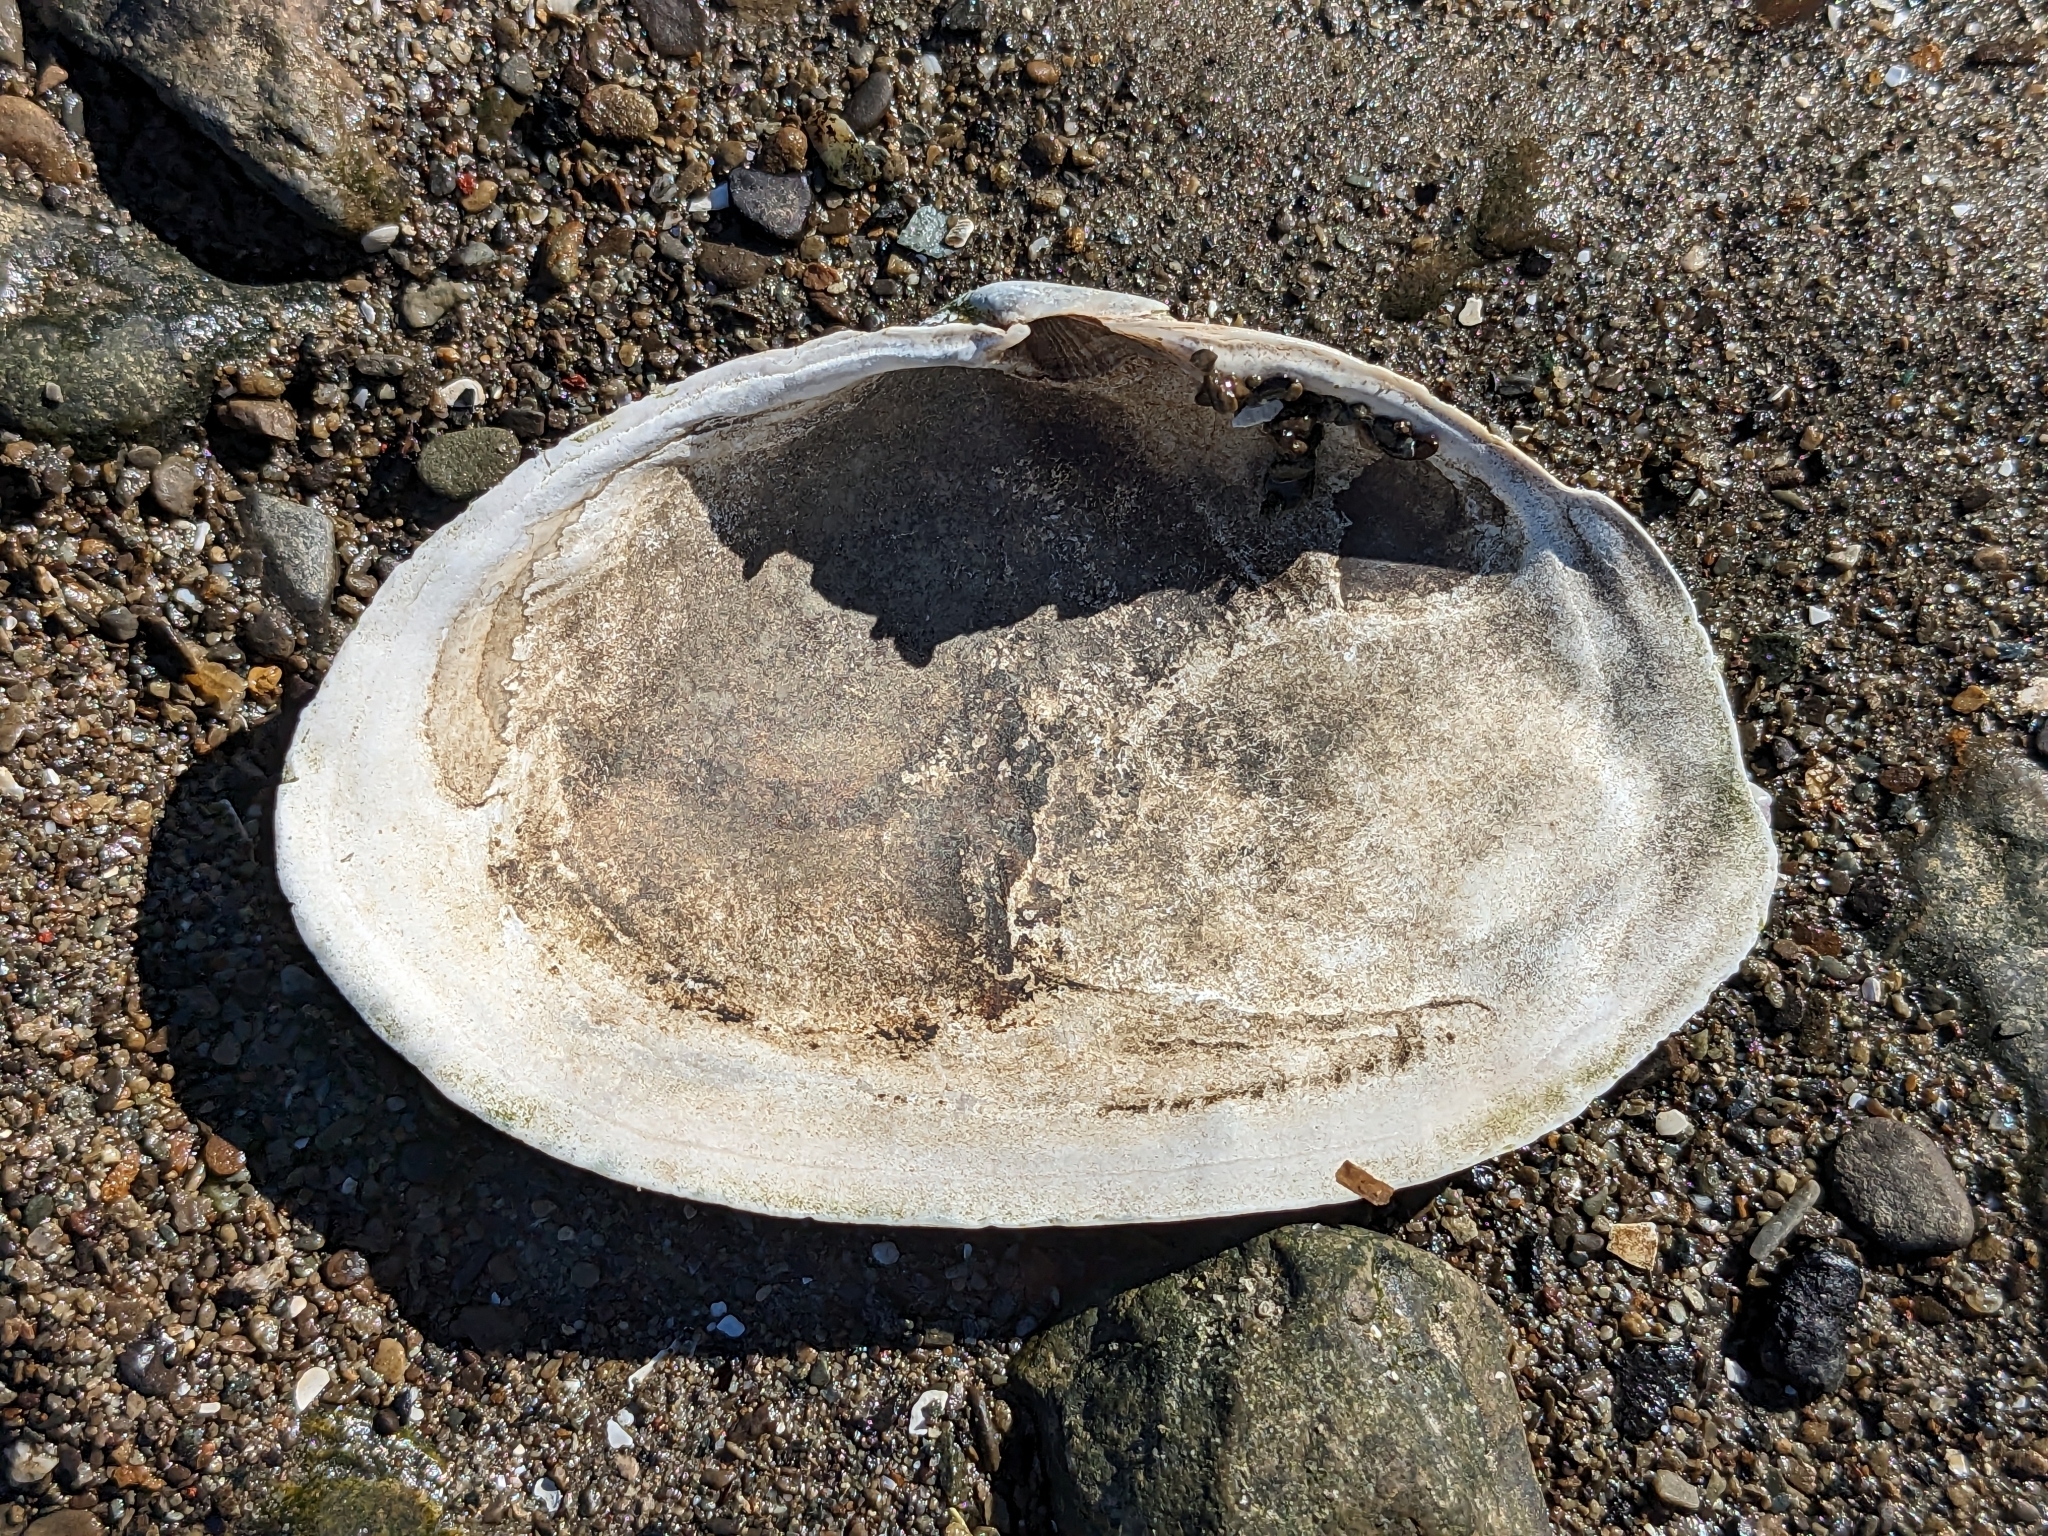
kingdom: Animalia
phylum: Mollusca
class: Bivalvia
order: Myida
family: Myidae
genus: Mya
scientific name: Mya arenaria
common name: Soft-shelled clam
